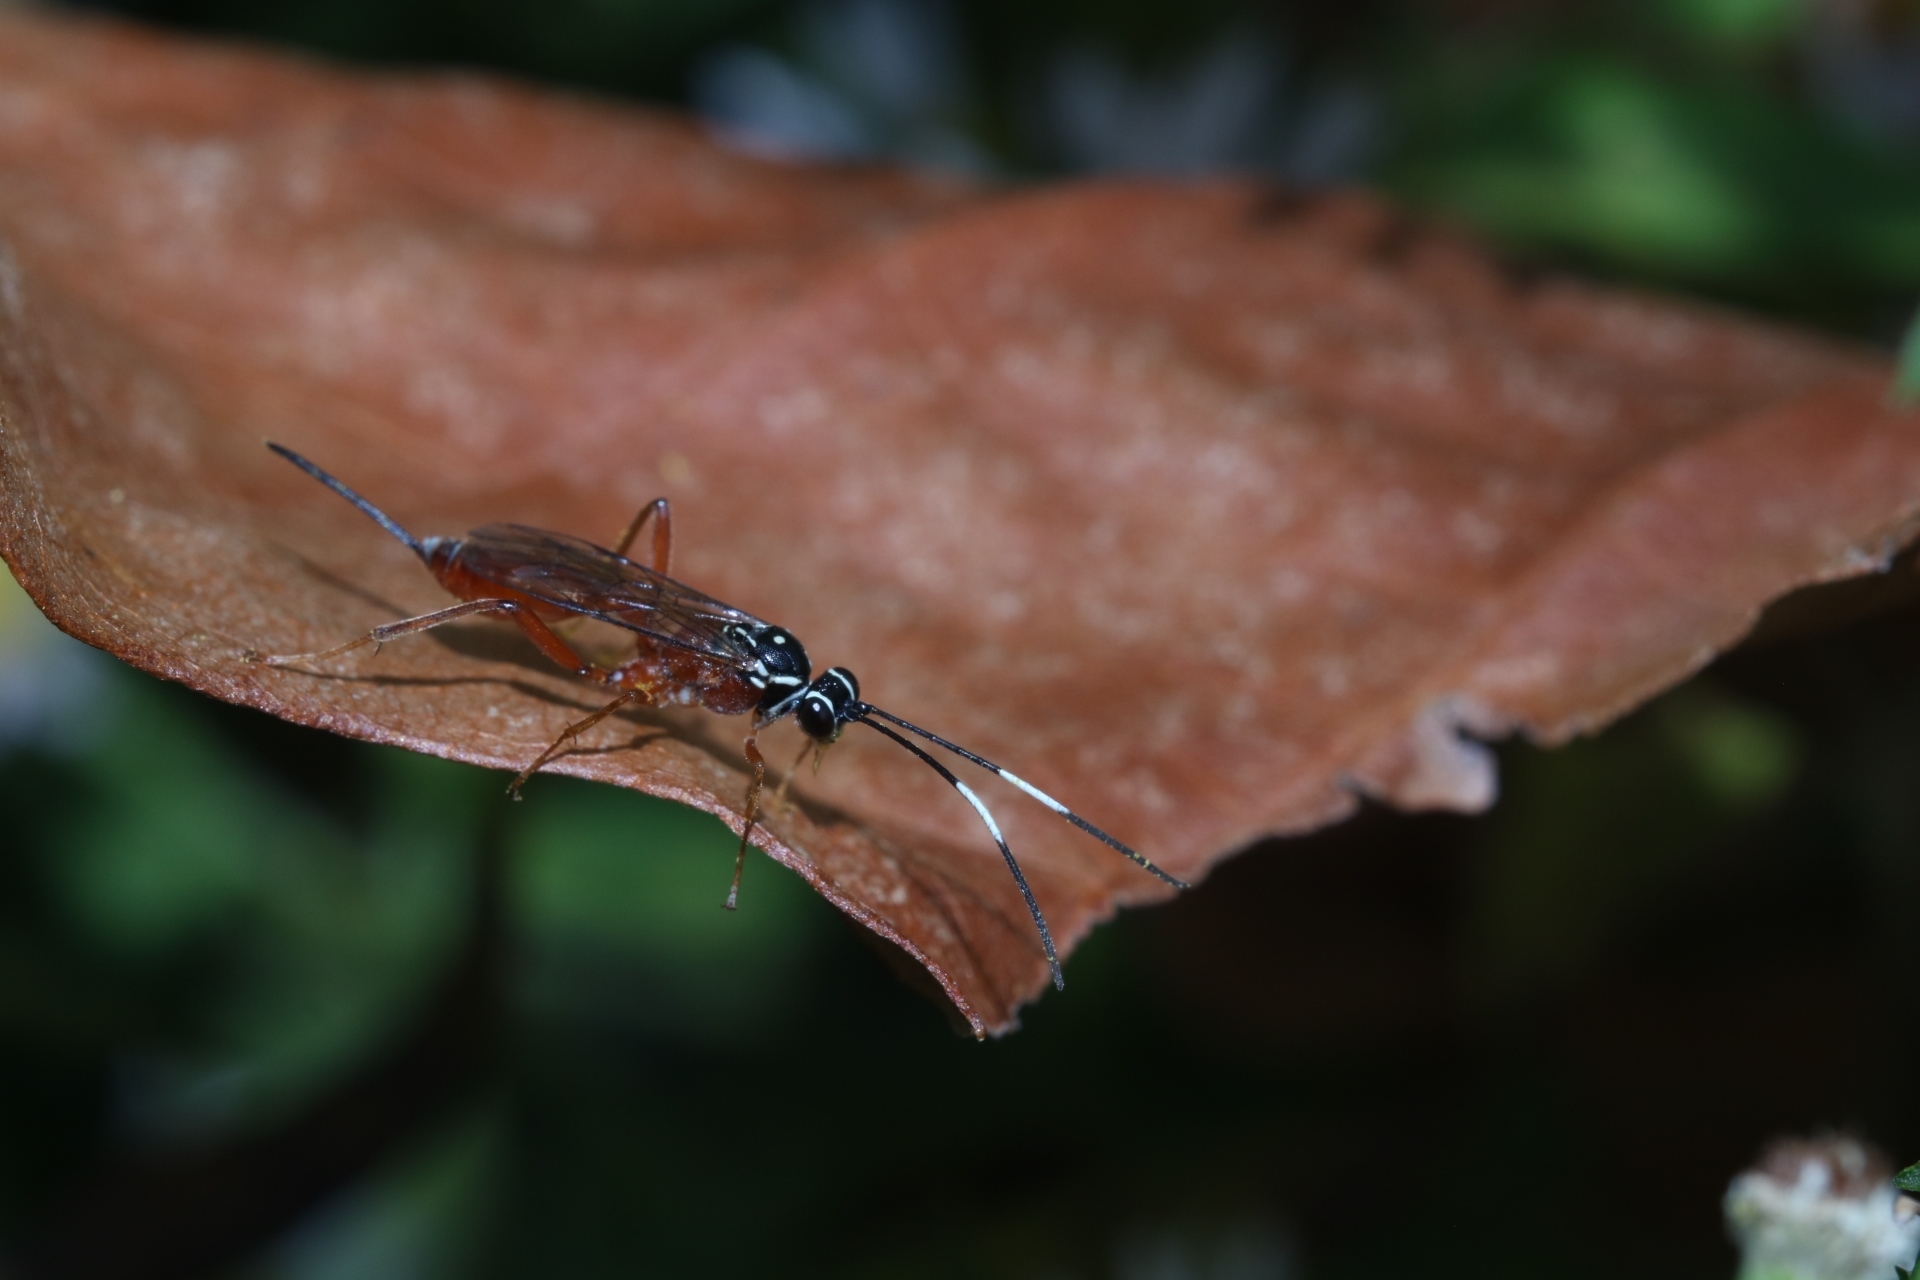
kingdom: Animalia
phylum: Arthropoda
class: Insecta
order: Hymenoptera
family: Ichneumonidae
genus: Mesostenus
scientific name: Mesostenus thoracicus
